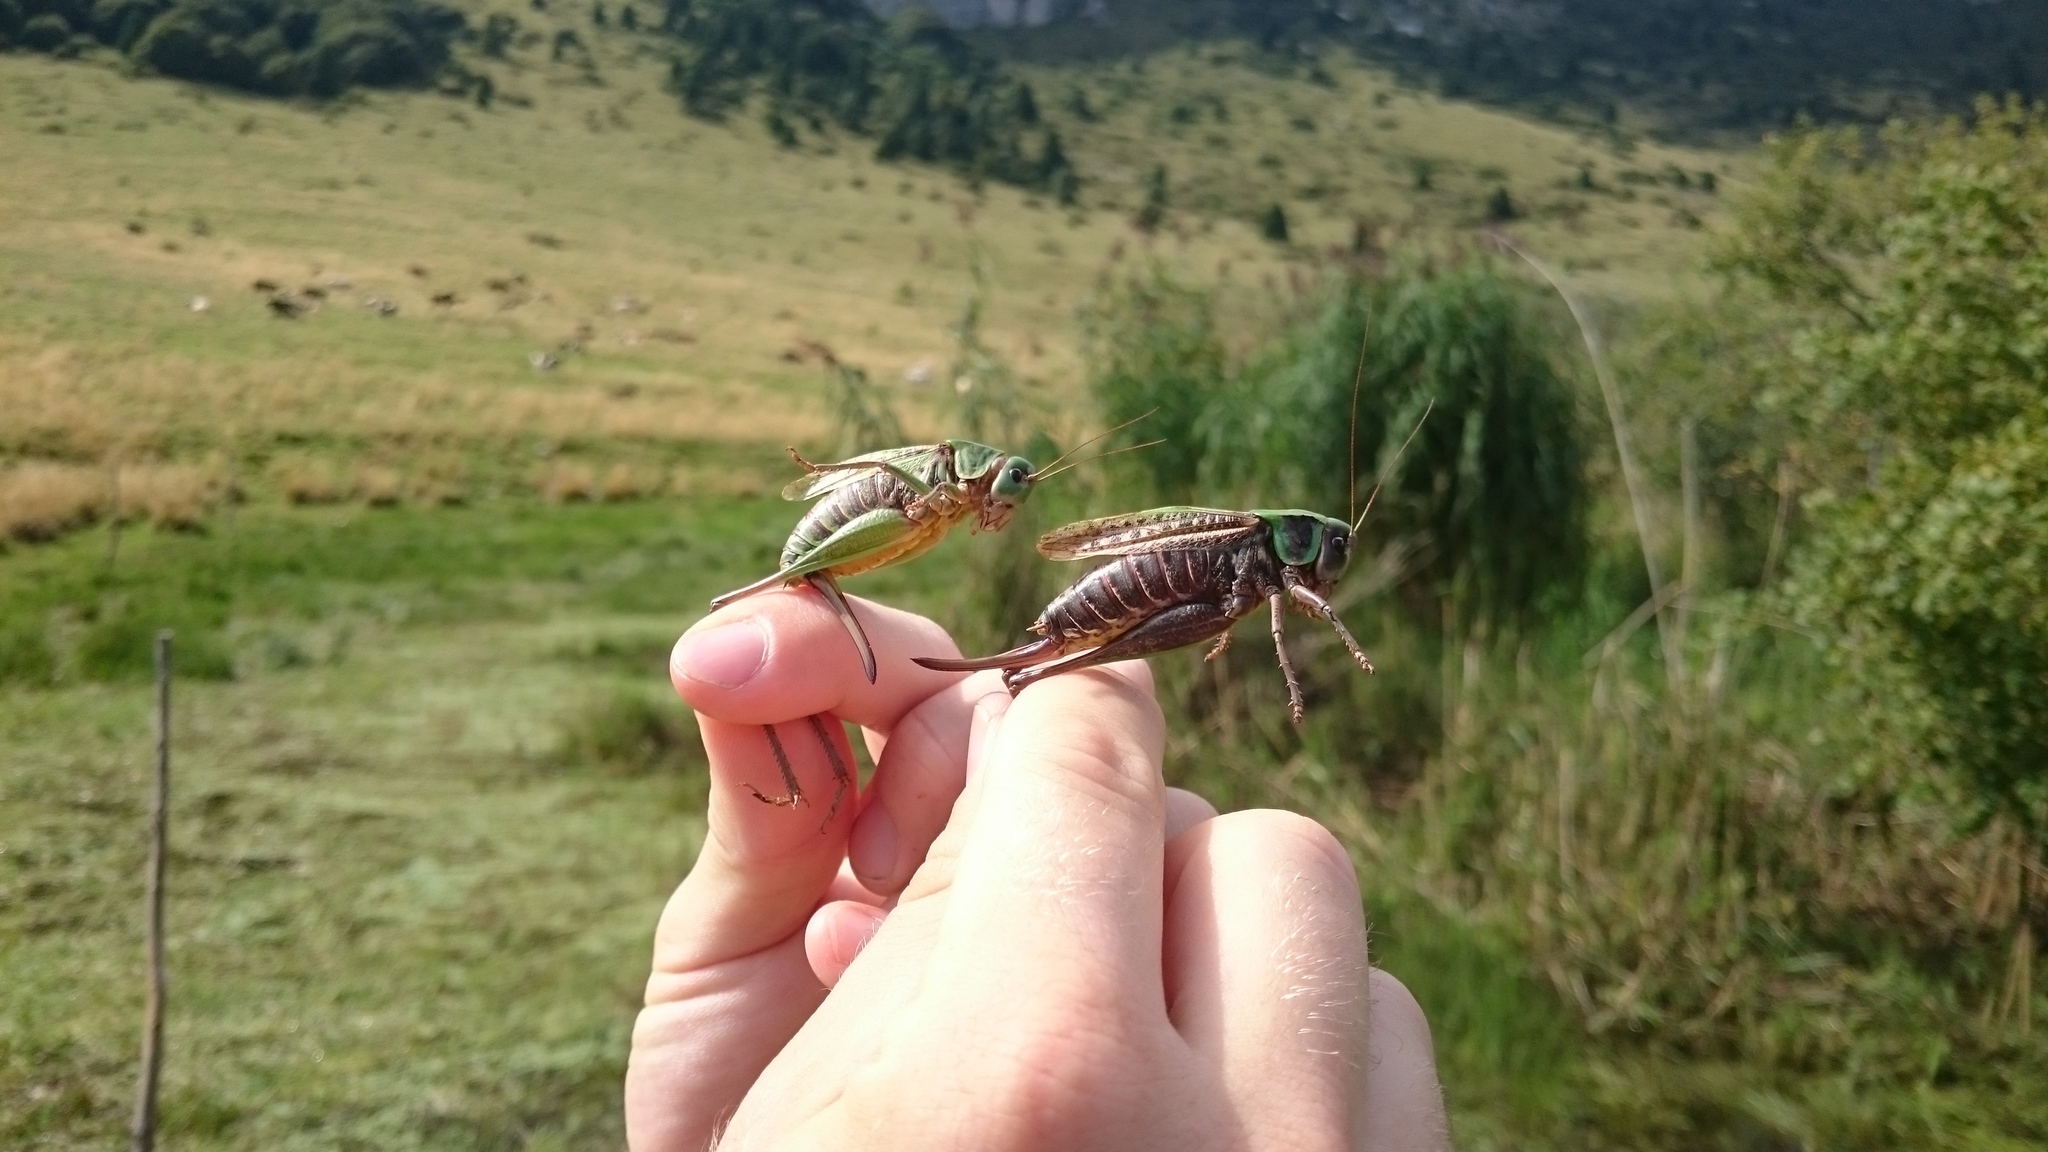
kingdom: Animalia
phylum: Arthropoda
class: Insecta
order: Orthoptera
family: Tettigoniidae
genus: Decticus
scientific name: Decticus verrucivorus
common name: Wart-biter
